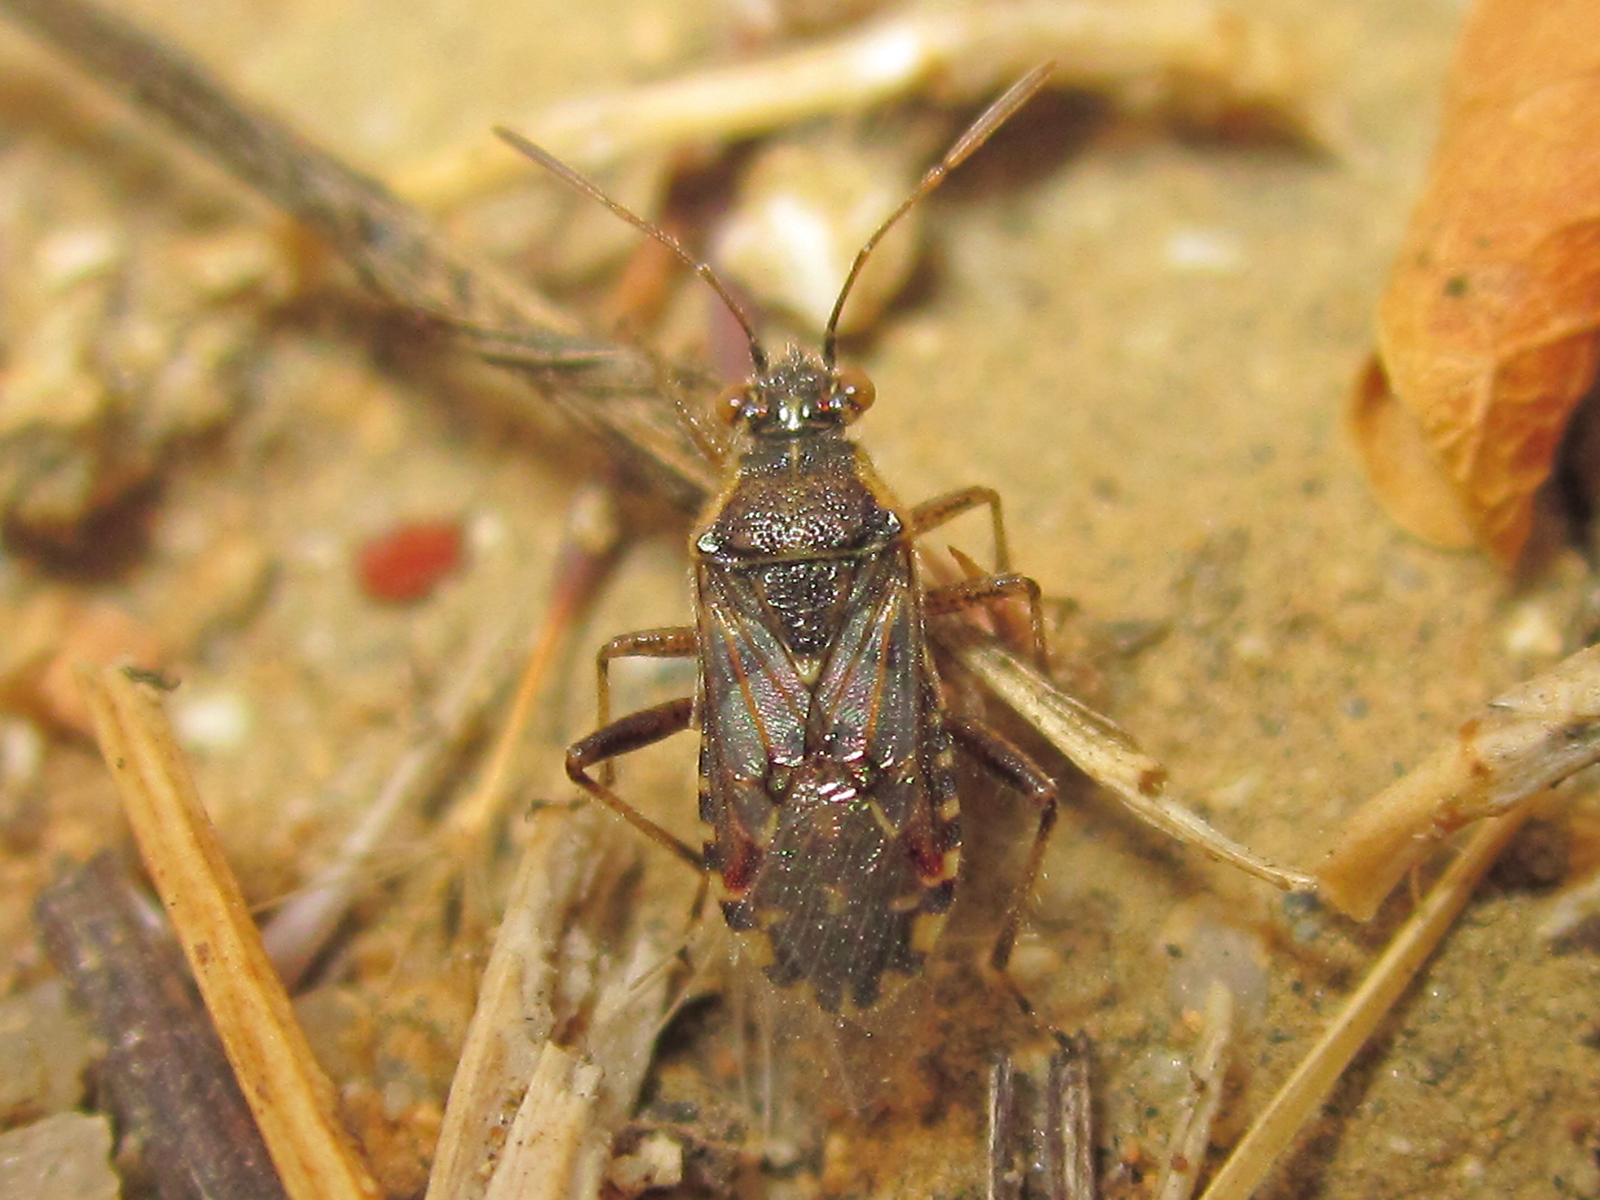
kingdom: Animalia
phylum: Arthropoda
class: Insecta
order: Hemiptera
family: Rhopalidae
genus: Liorhyssus
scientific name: Liorhyssus hyalinus
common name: Scentless plant bug
